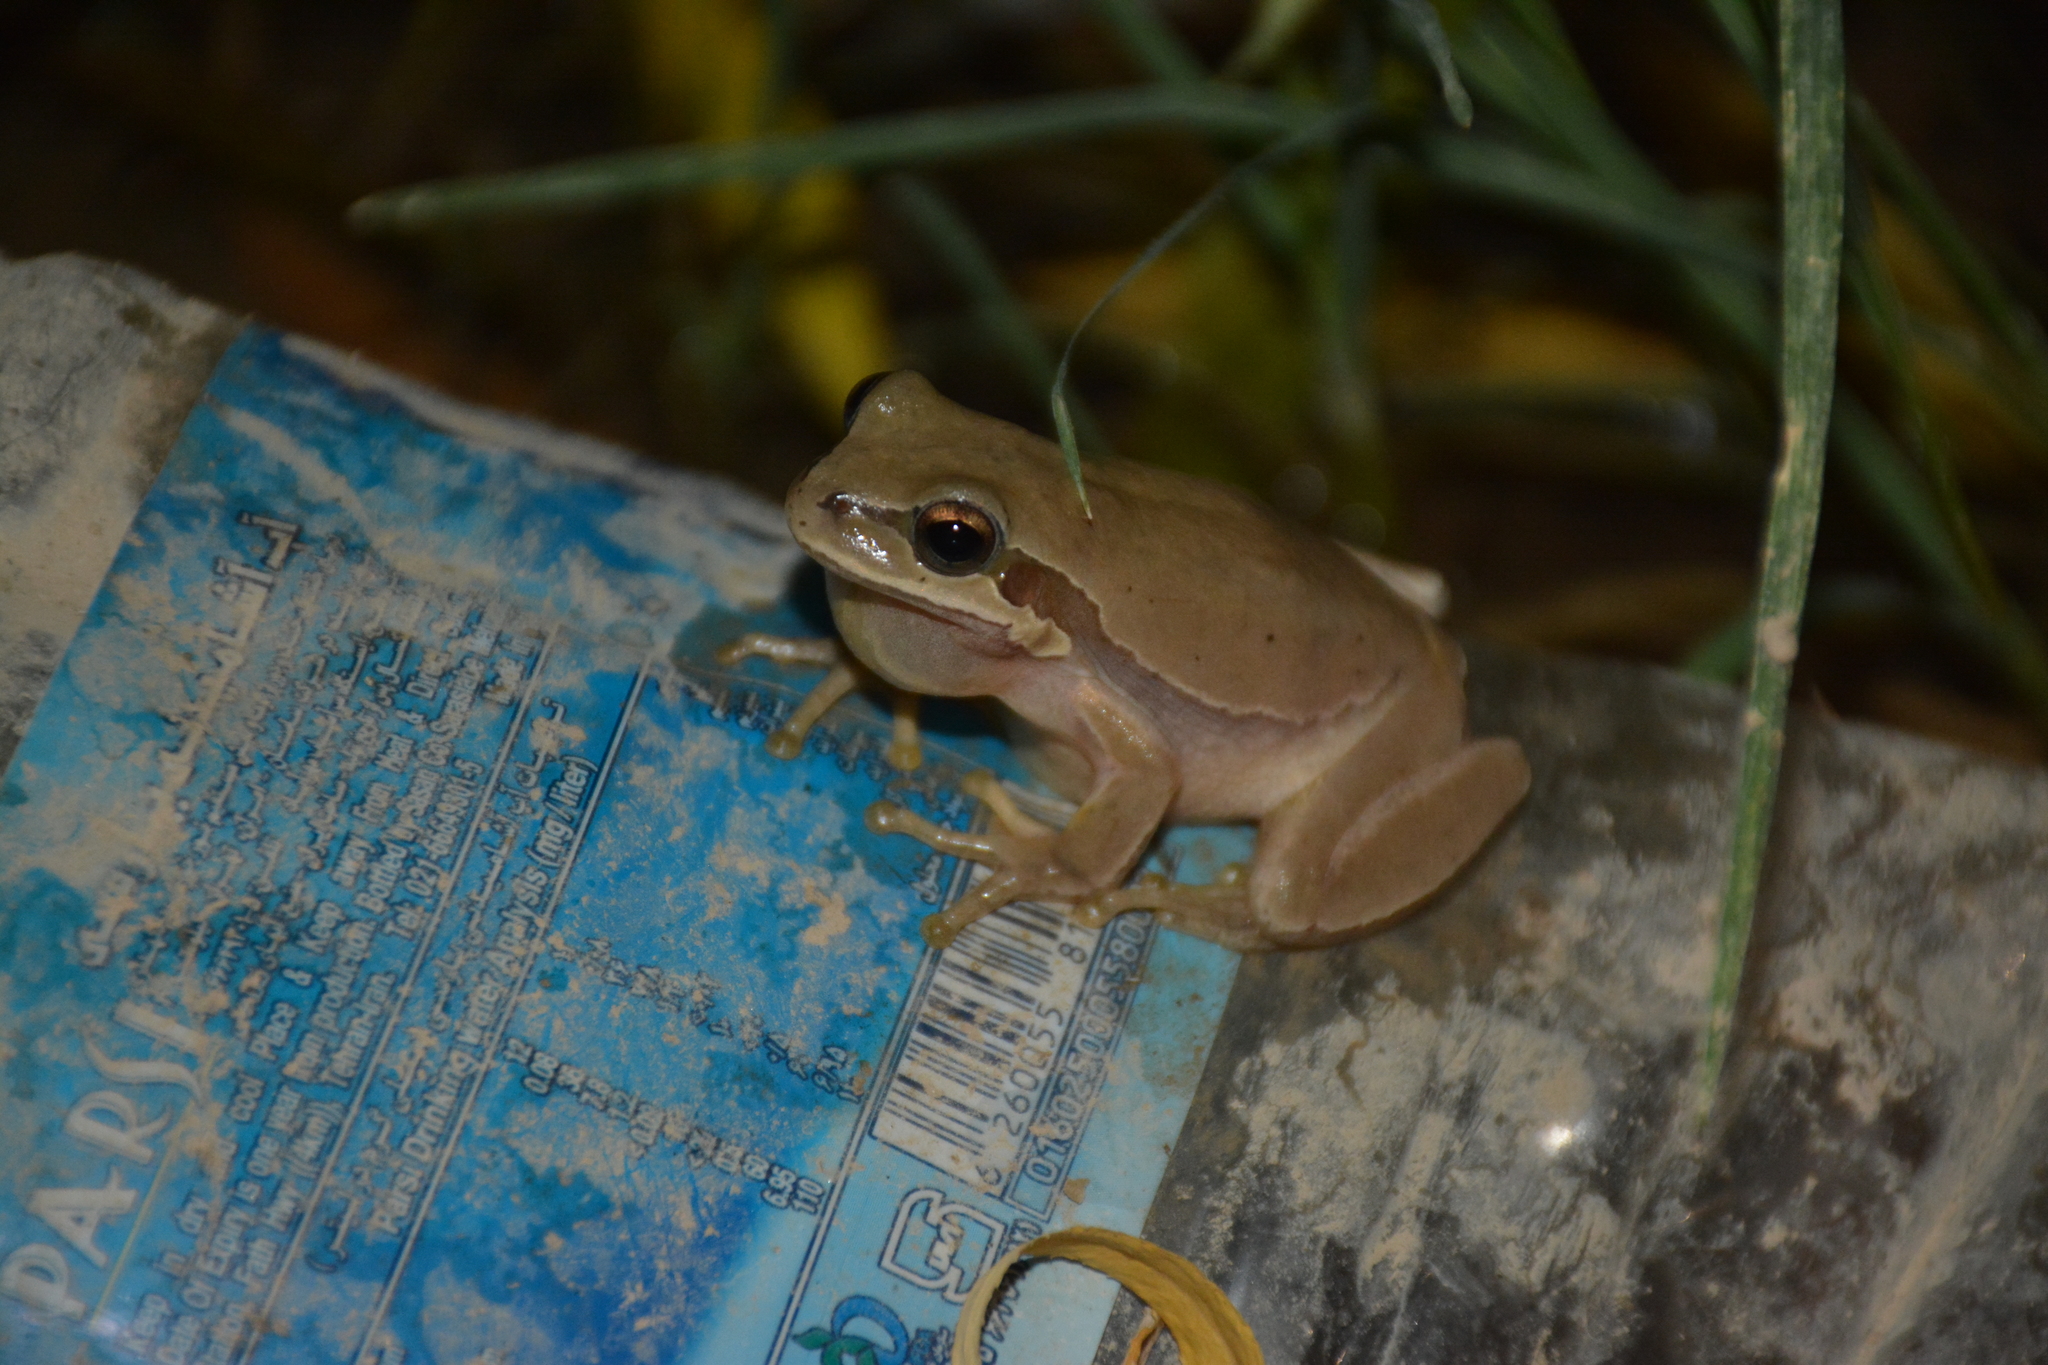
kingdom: Animalia
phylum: Chordata
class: Amphibia
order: Anura
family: Hylidae
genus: Hyla
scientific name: Hyla savignyi
